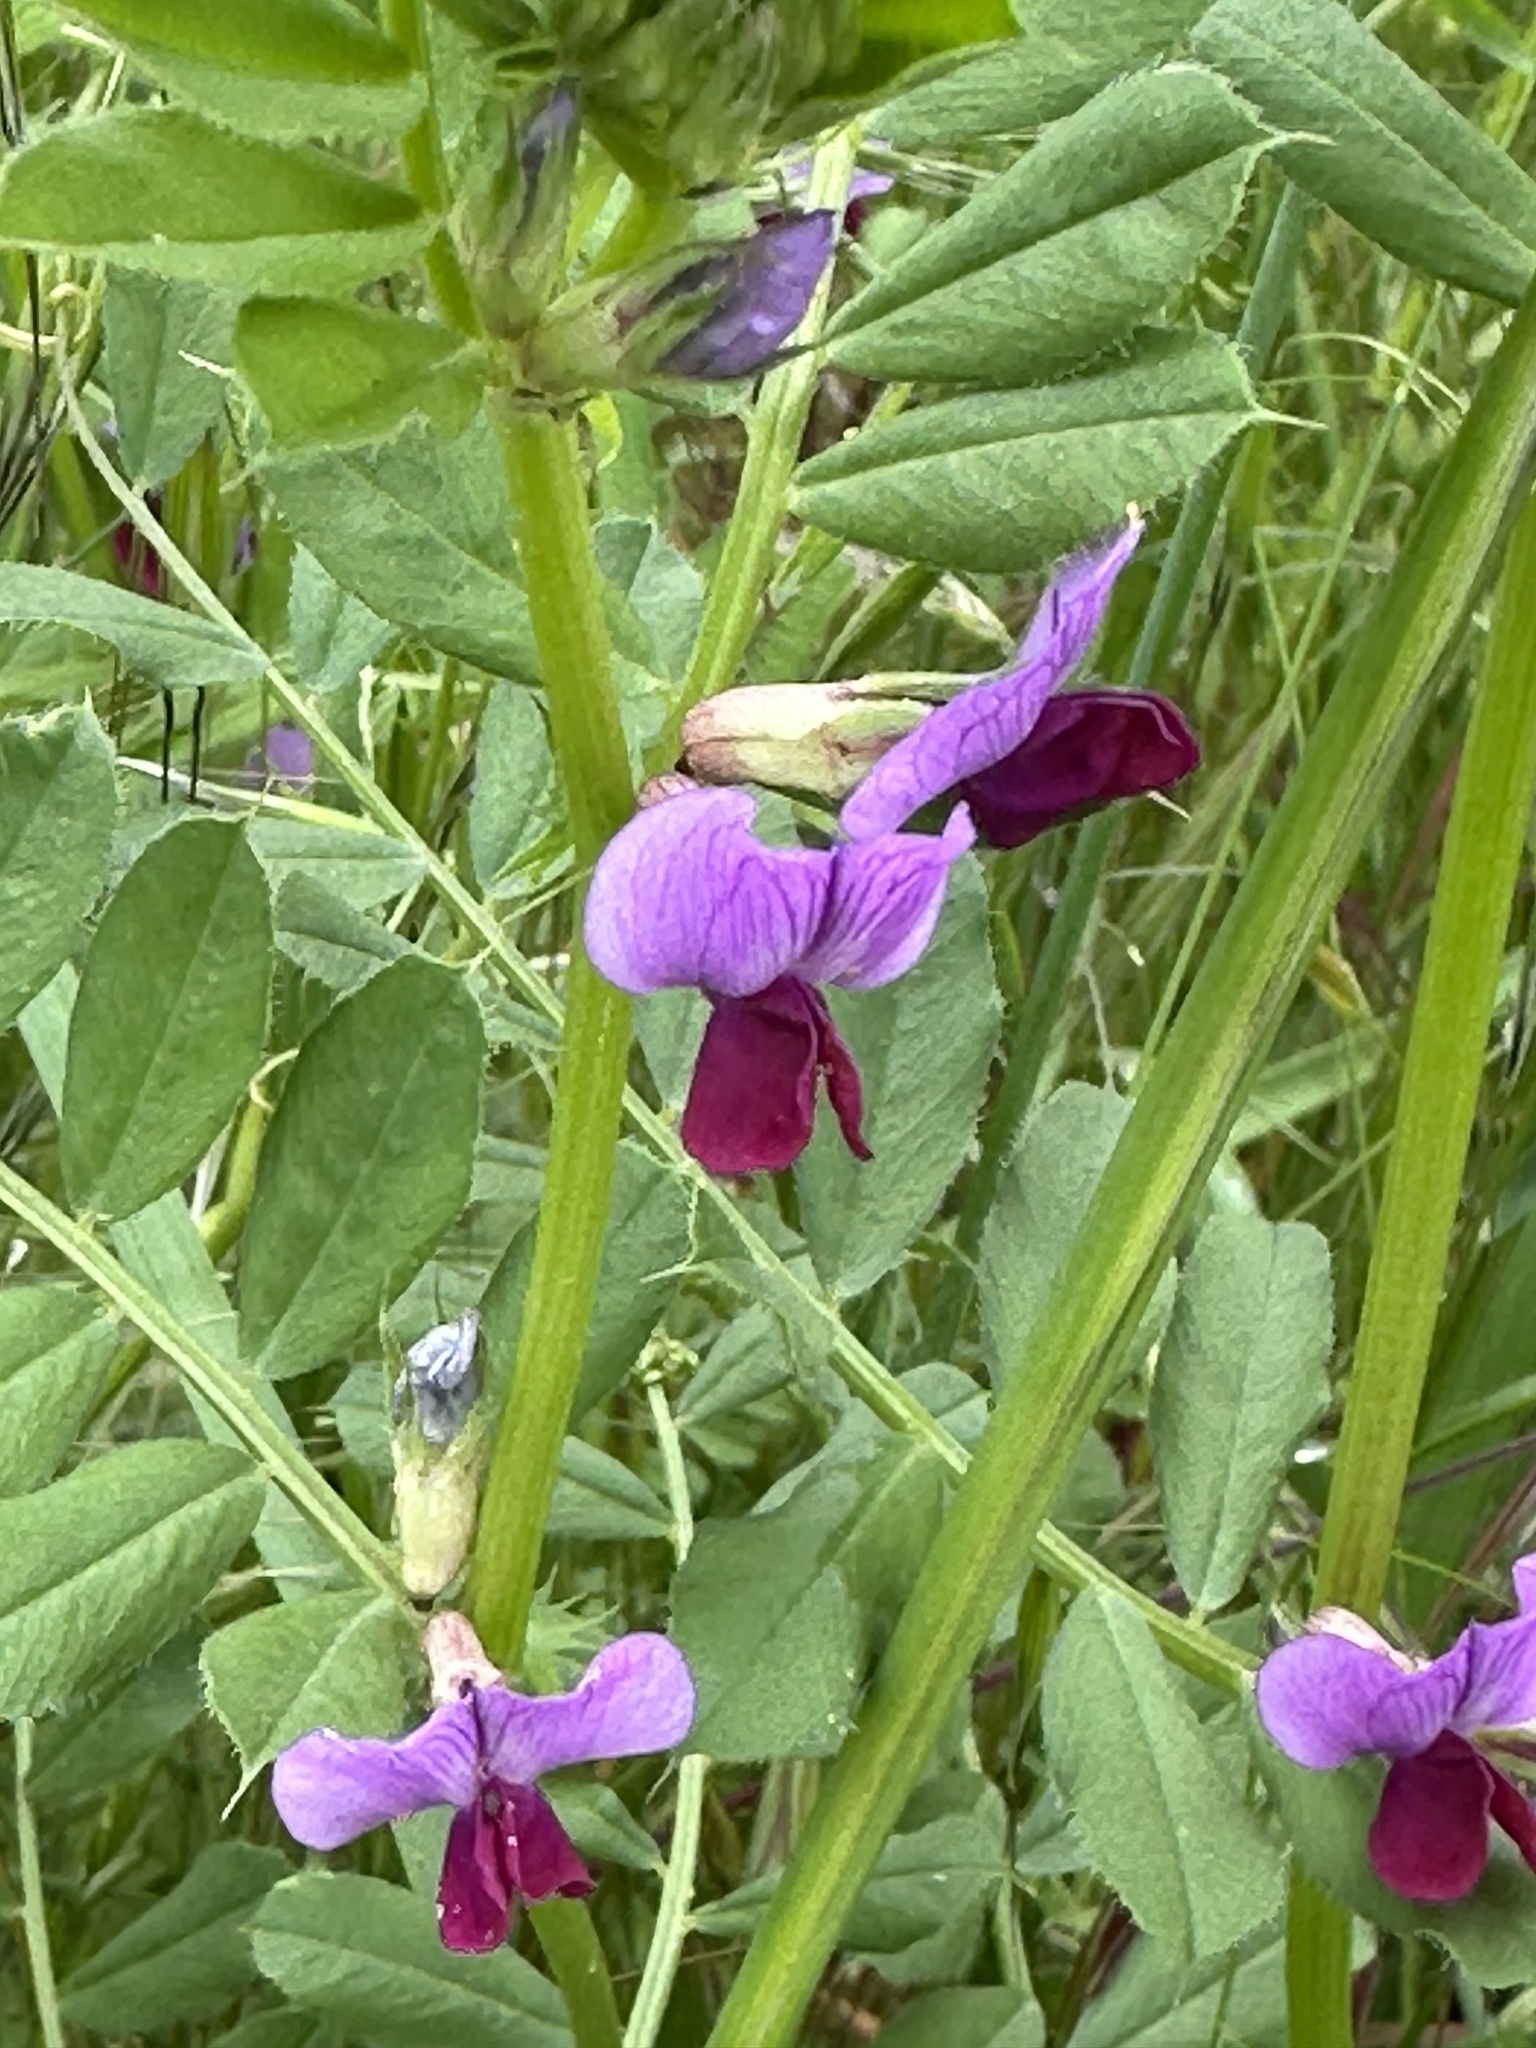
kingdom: Plantae
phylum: Tracheophyta
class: Magnoliopsida
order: Fabales
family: Fabaceae
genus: Vicia
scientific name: Vicia sativa
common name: Garden vetch
